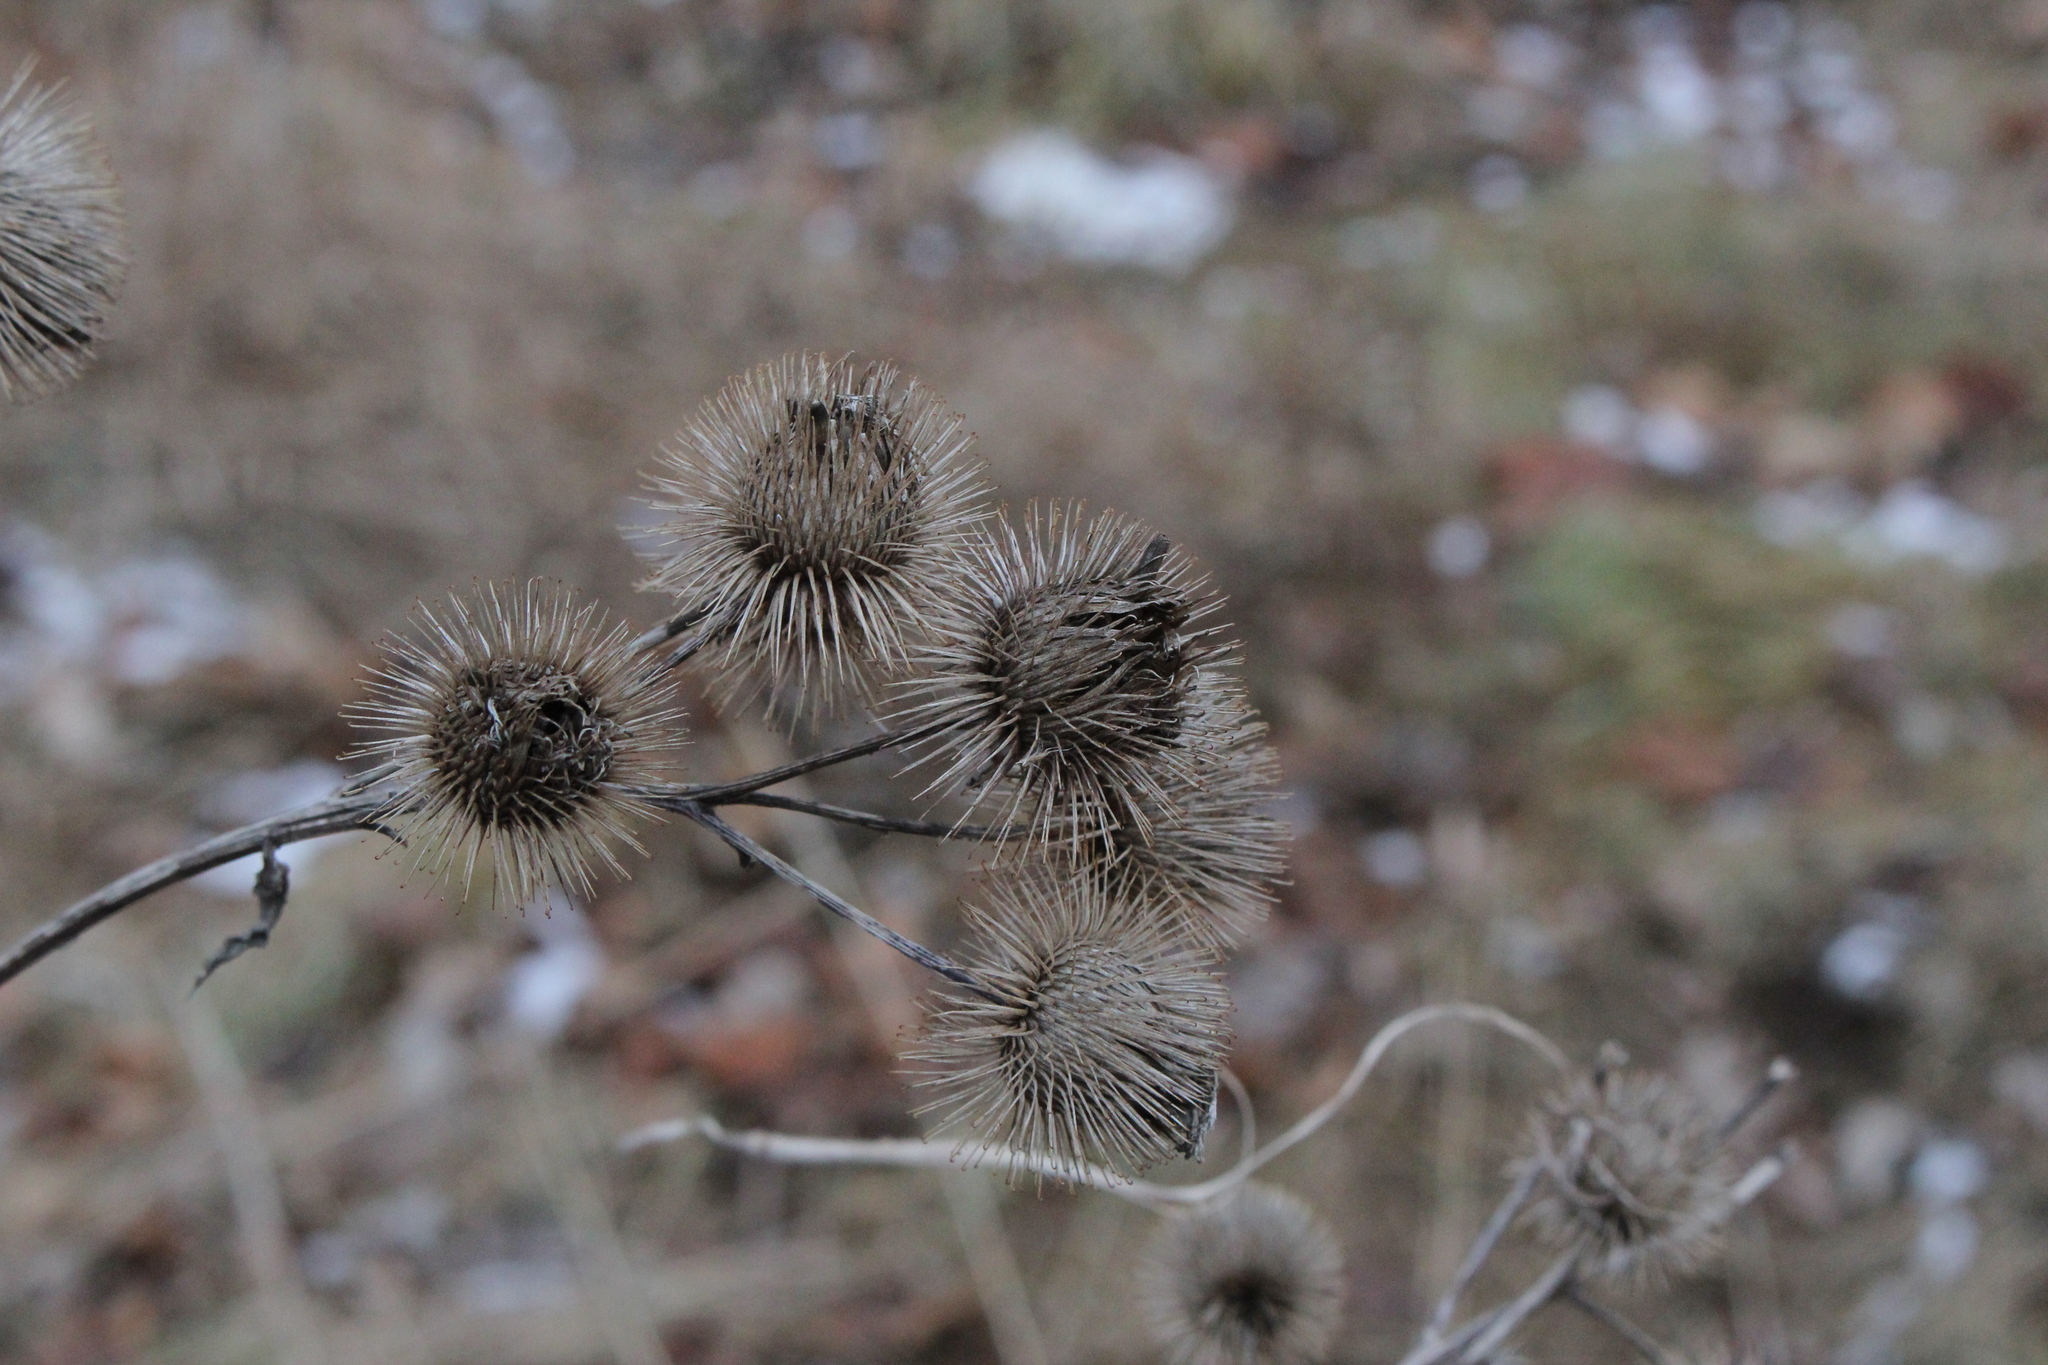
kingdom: Plantae
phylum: Tracheophyta
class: Magnoliopsida
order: Asterales
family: Asteraceae
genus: Arctium
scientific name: Arctium lappa
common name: Greater burdock
